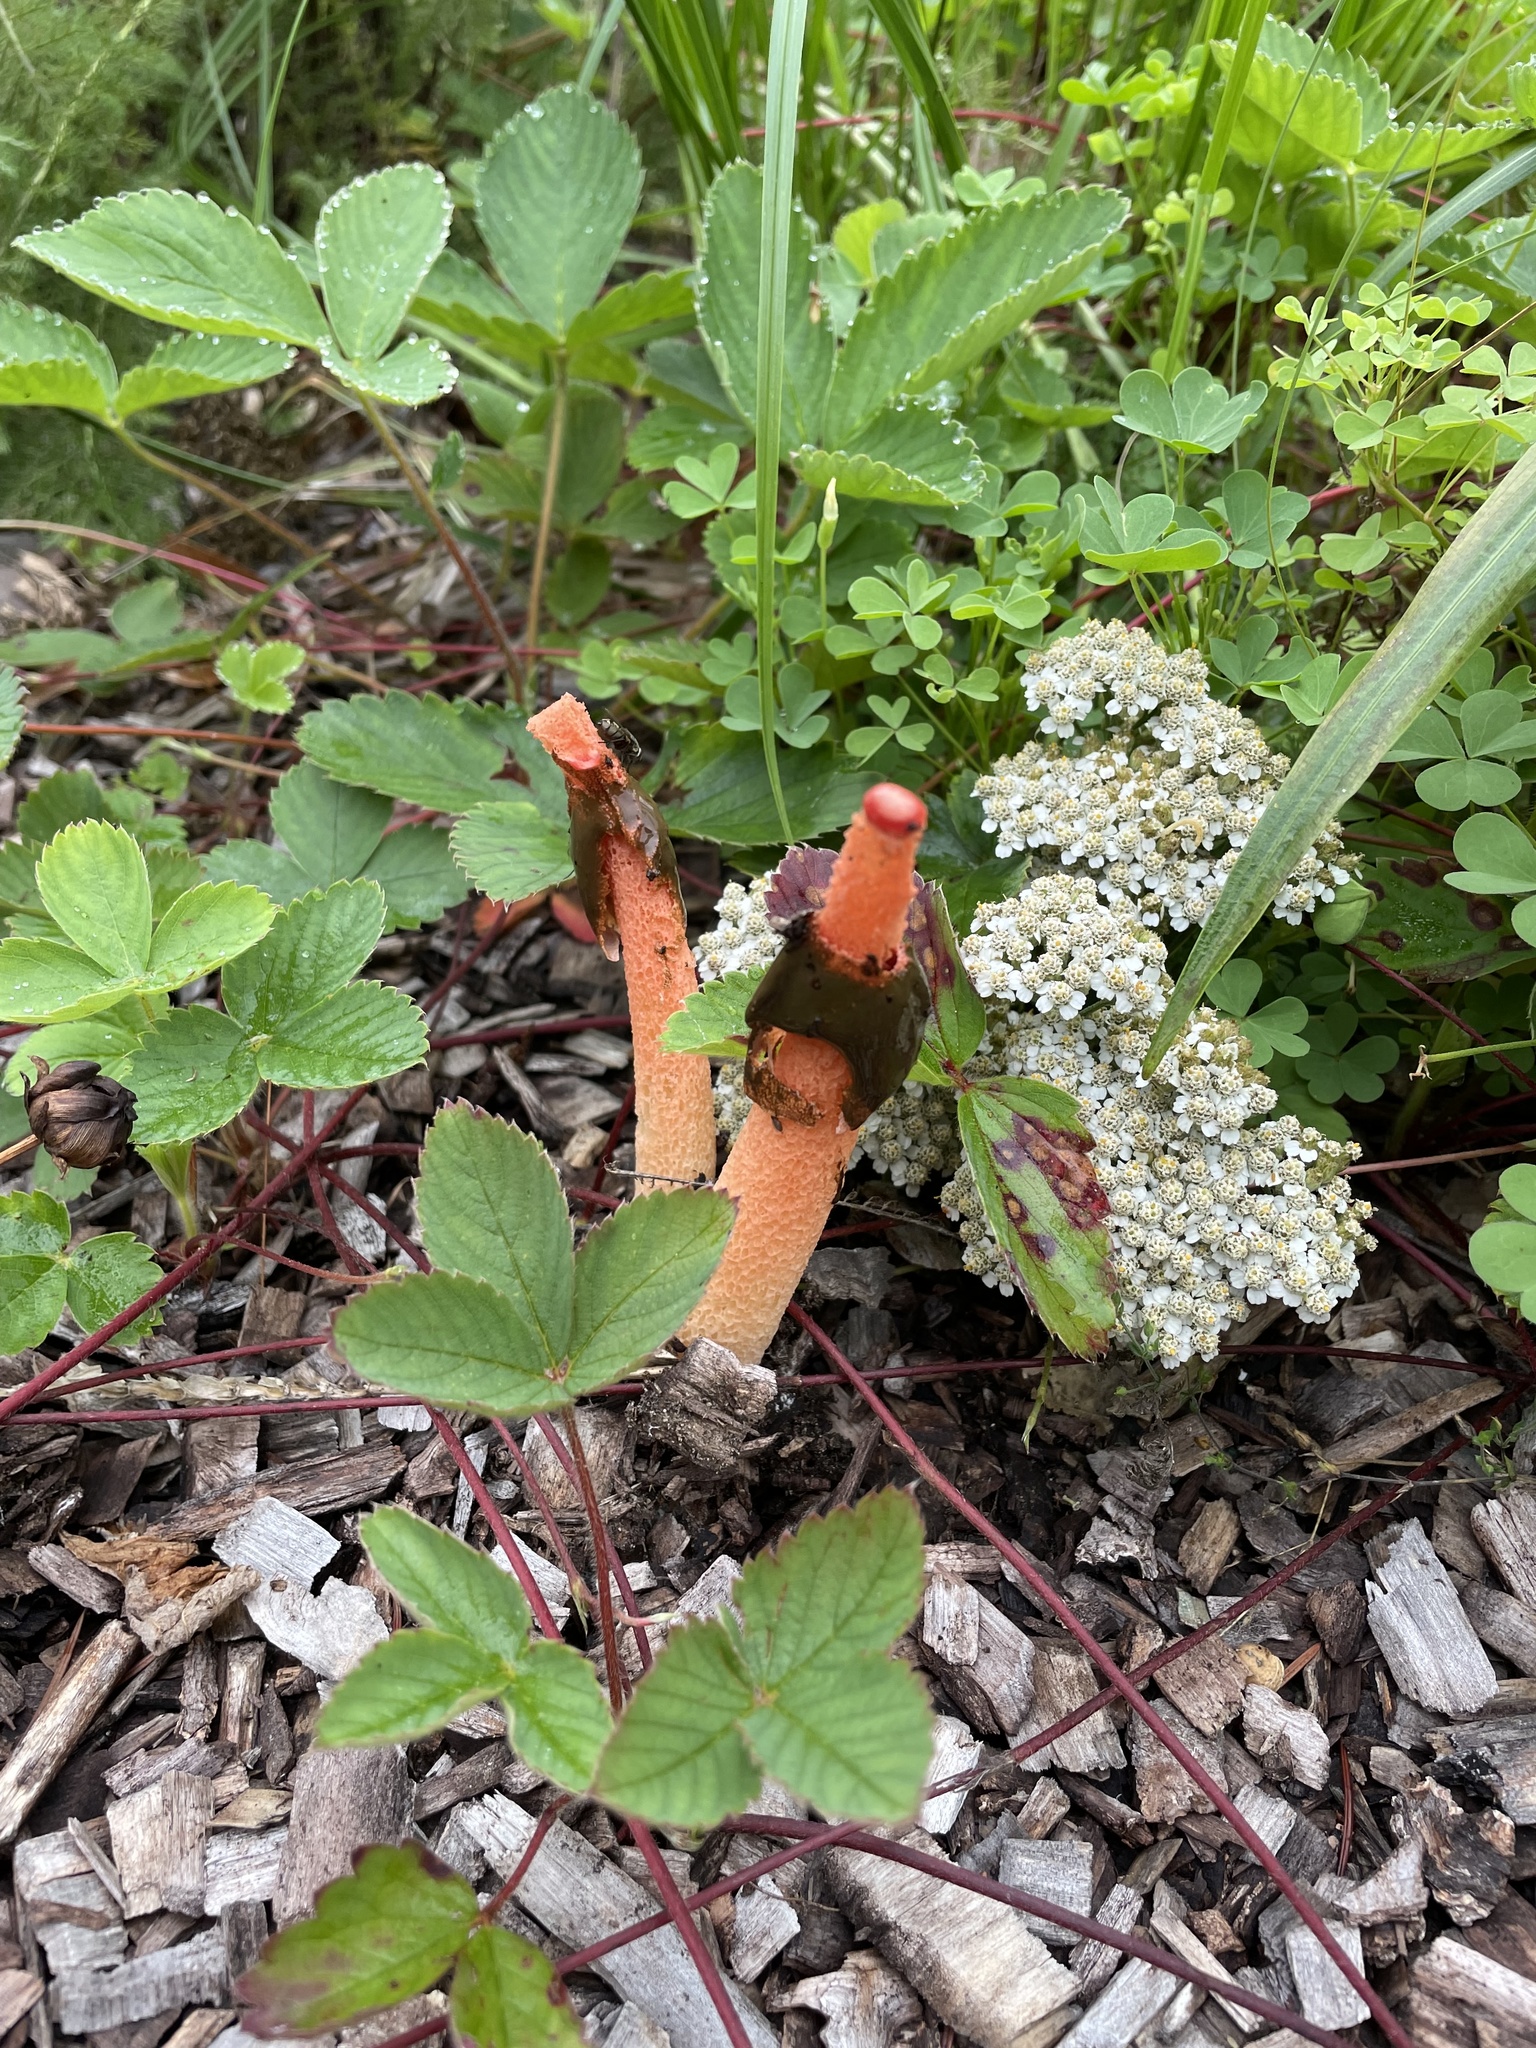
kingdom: Fungi
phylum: Basidiomycota
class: Agaricomycetes
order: Phallales
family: Phallaceae
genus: Phallus
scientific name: Phallus rugulosus
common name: Wrinkly stinkhorn
